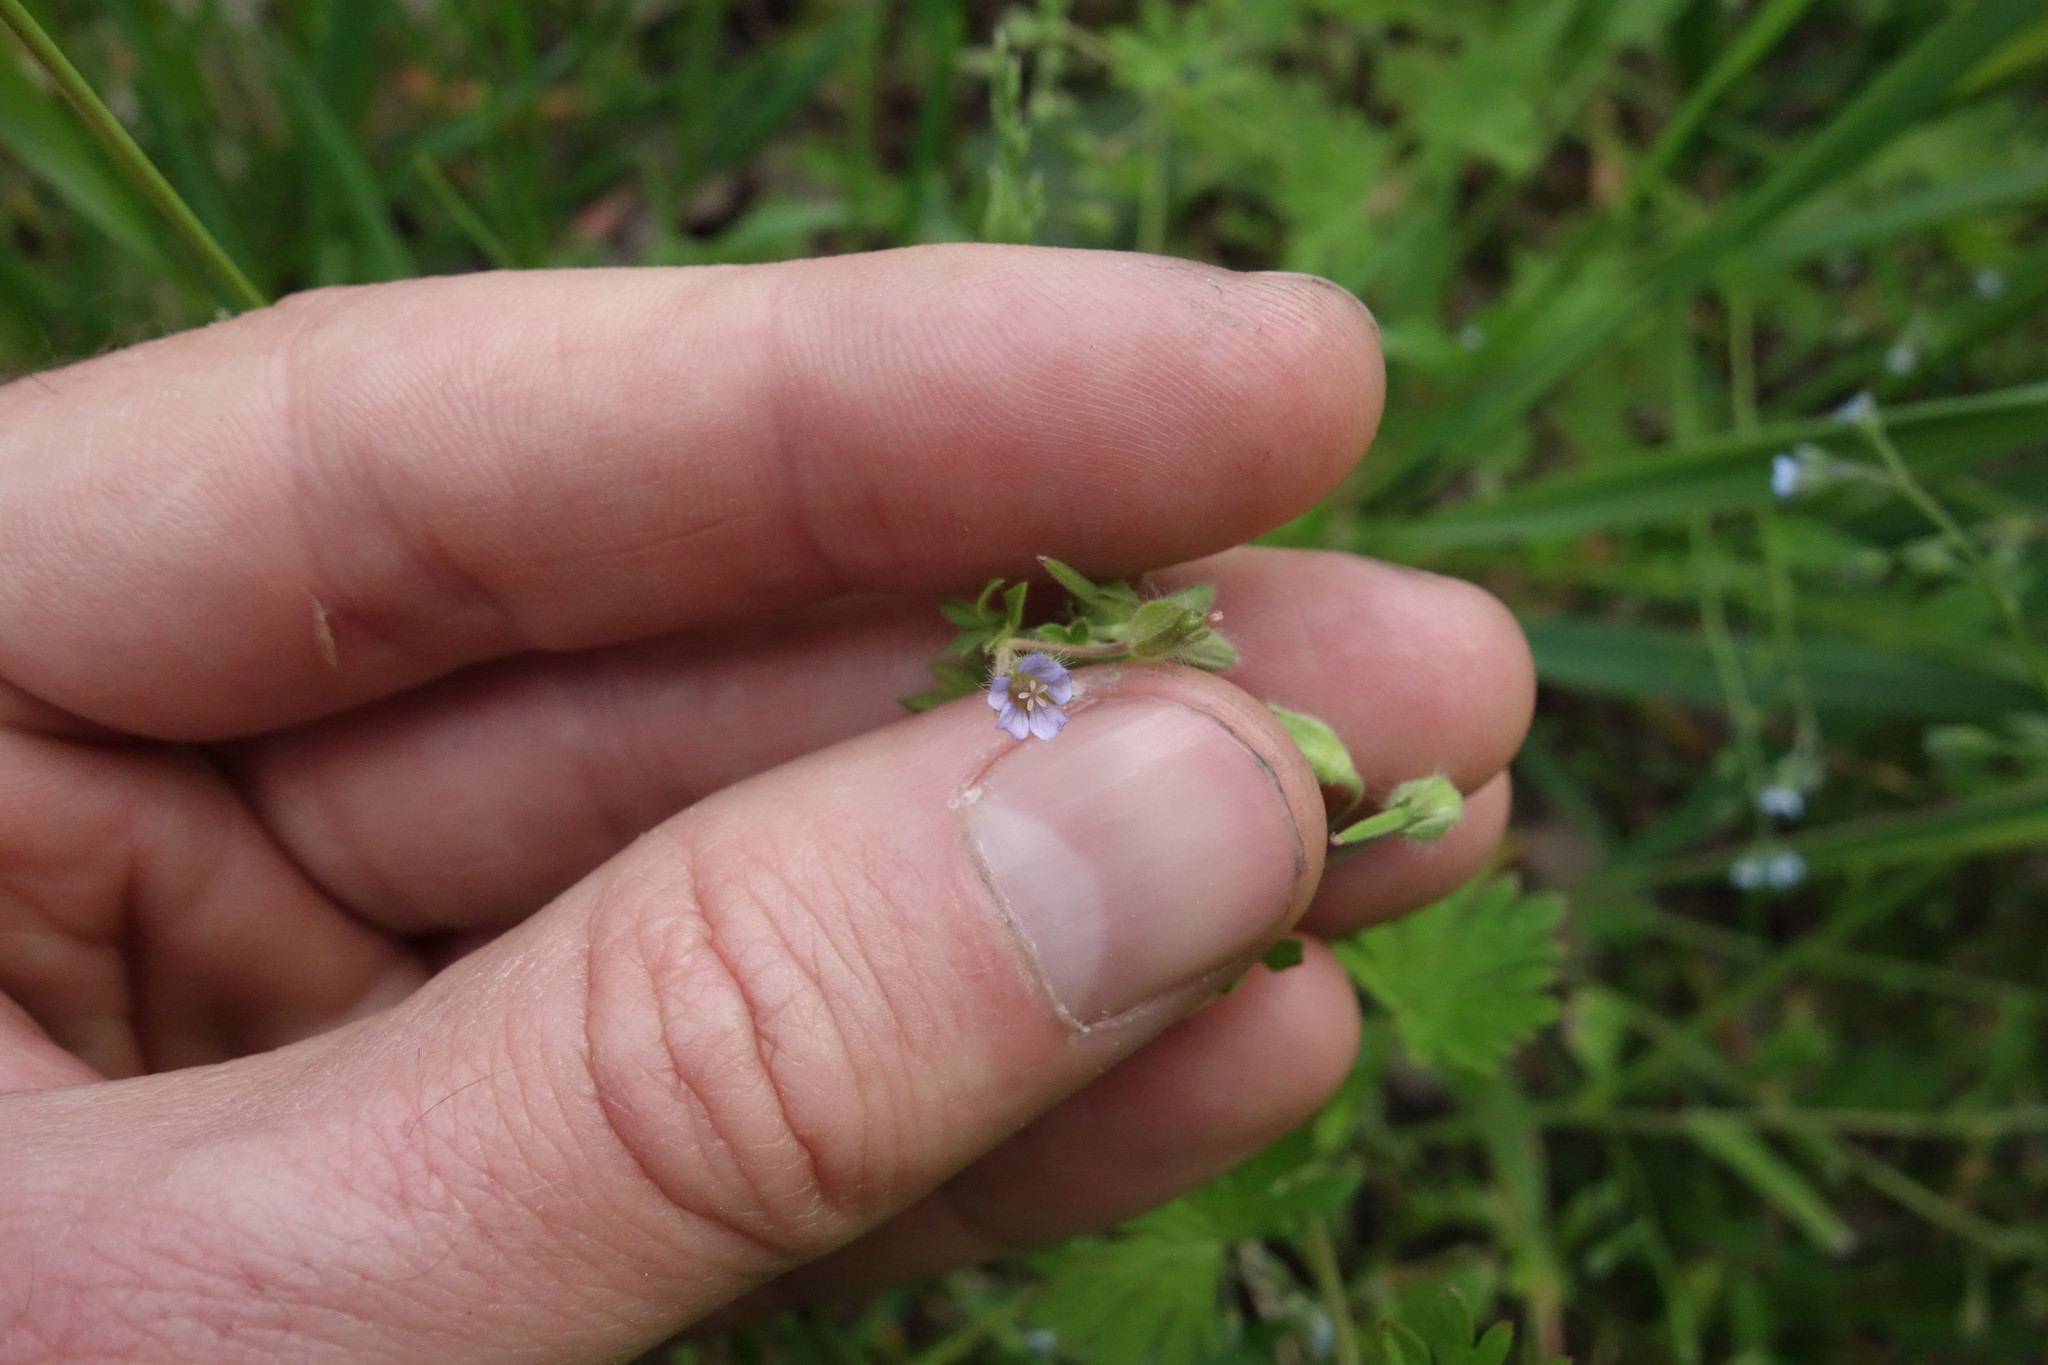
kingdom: Plantae
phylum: Tracheophyta
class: Magnoliopsida
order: Geraniales
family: Geraniaceae
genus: Geranium
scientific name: Geranium pusillum
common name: Small geranium
